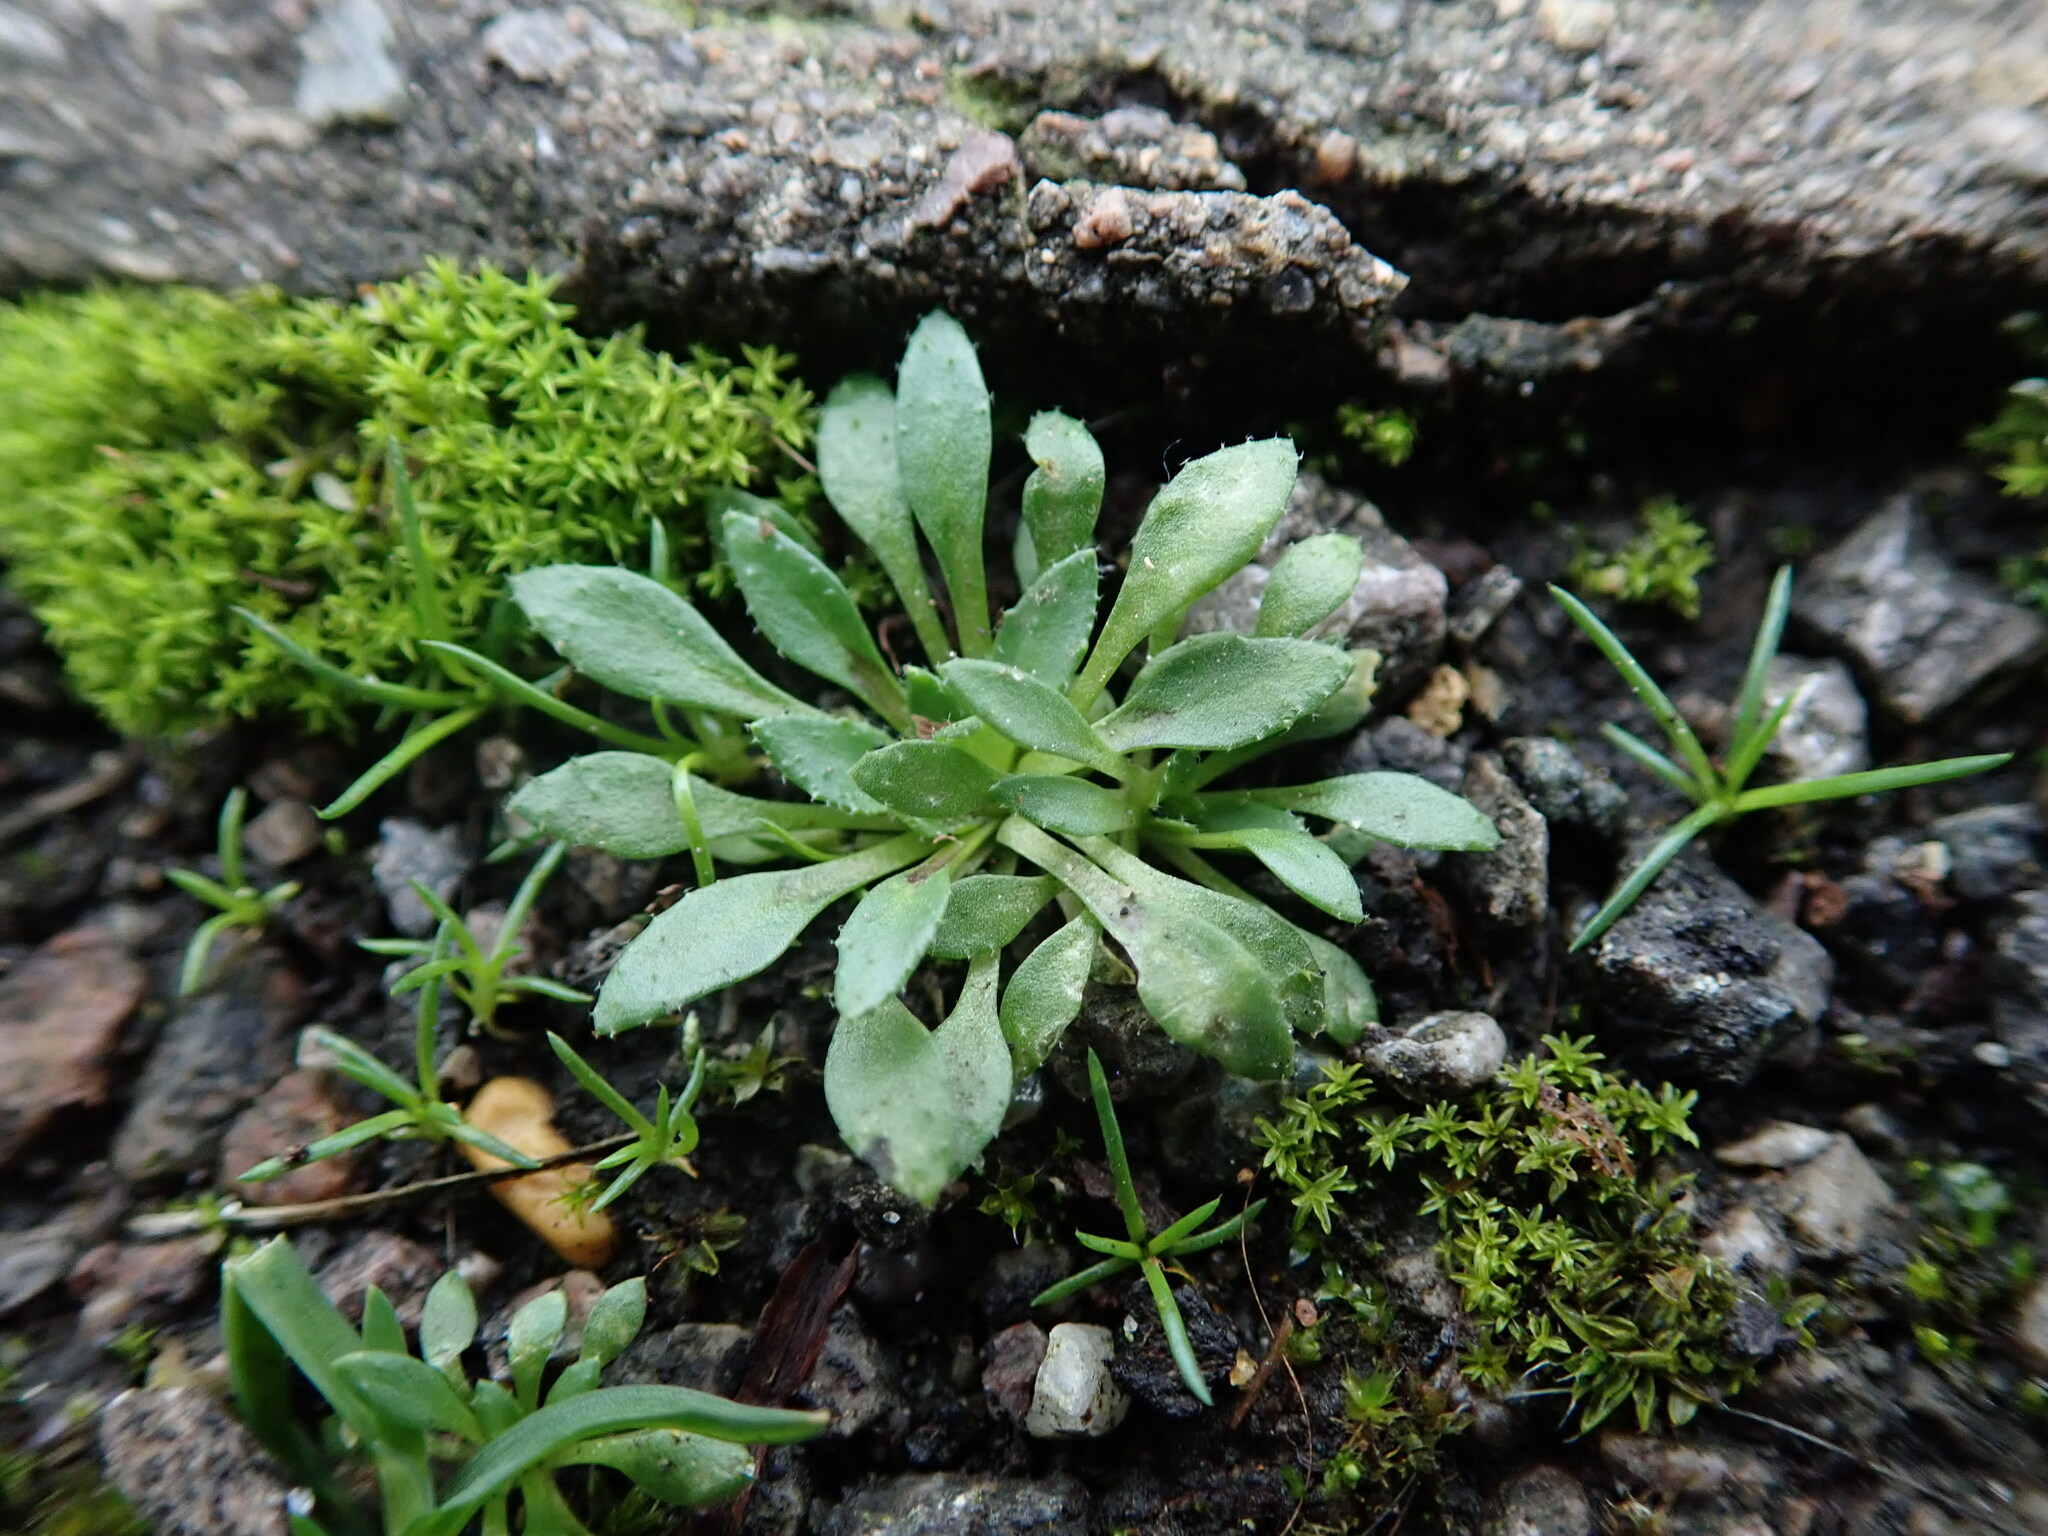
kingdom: Plantae
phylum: Tracheophyta
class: Magnoliopsida
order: Brassicales
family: Brassicaceae
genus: Draba
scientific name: Draba verna
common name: Spring draba
